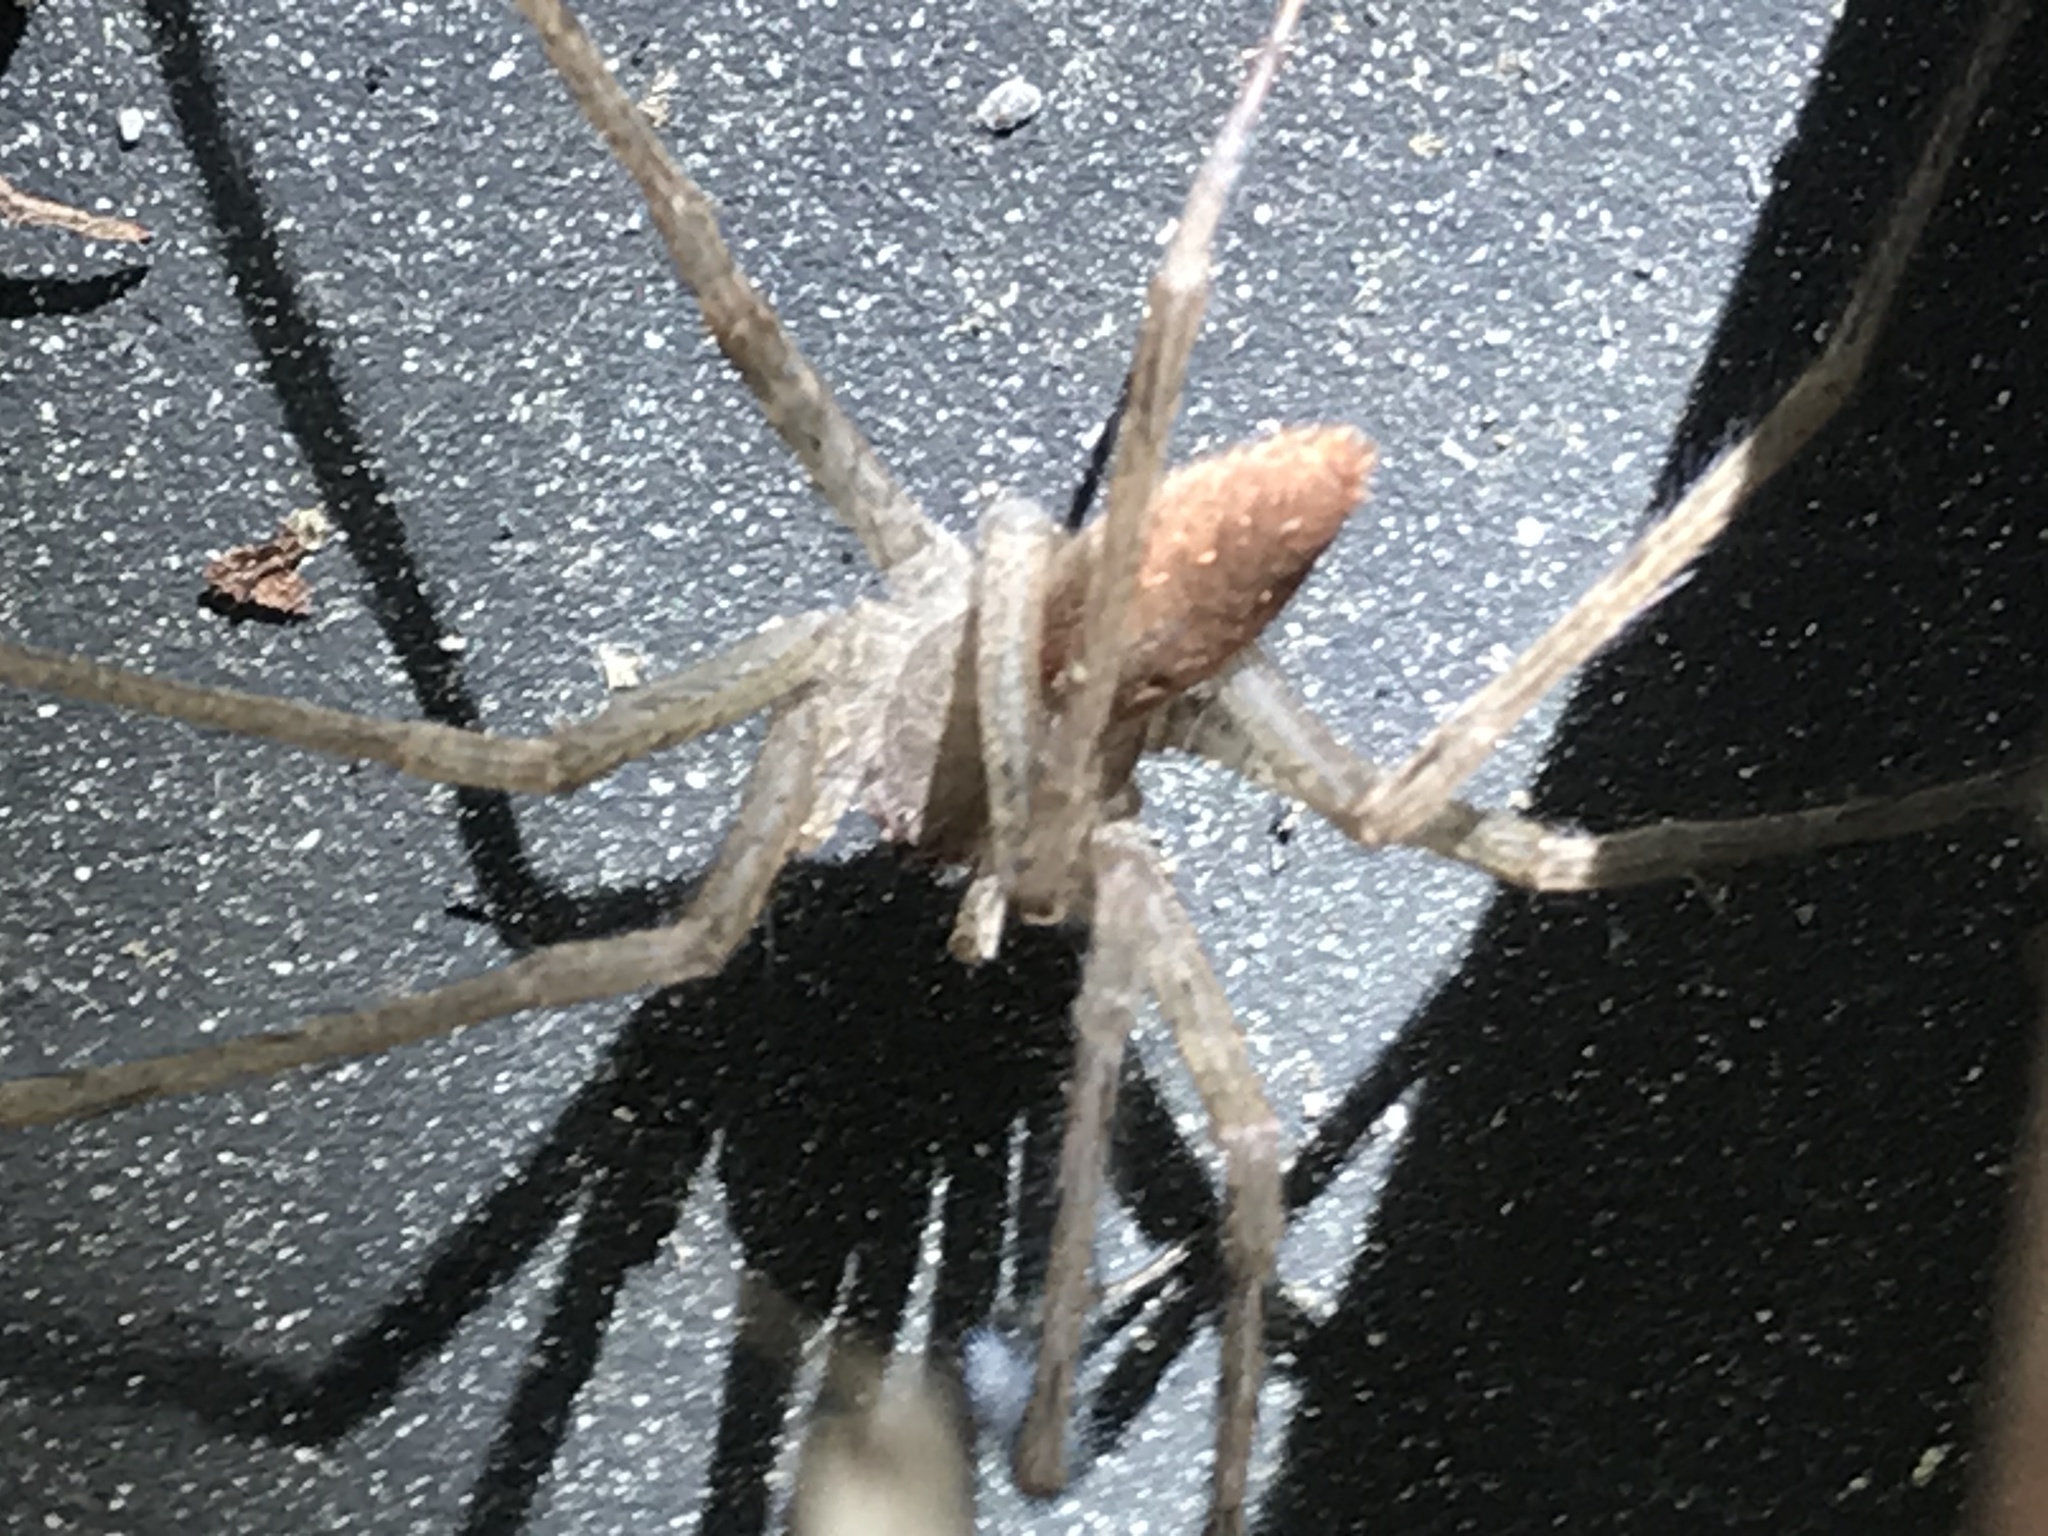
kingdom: Animalia
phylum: Arthropoda
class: Arachnida
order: Araneae
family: Pisauridae
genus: Pisaurina
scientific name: Pisaurina mira
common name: American nursery web spider
